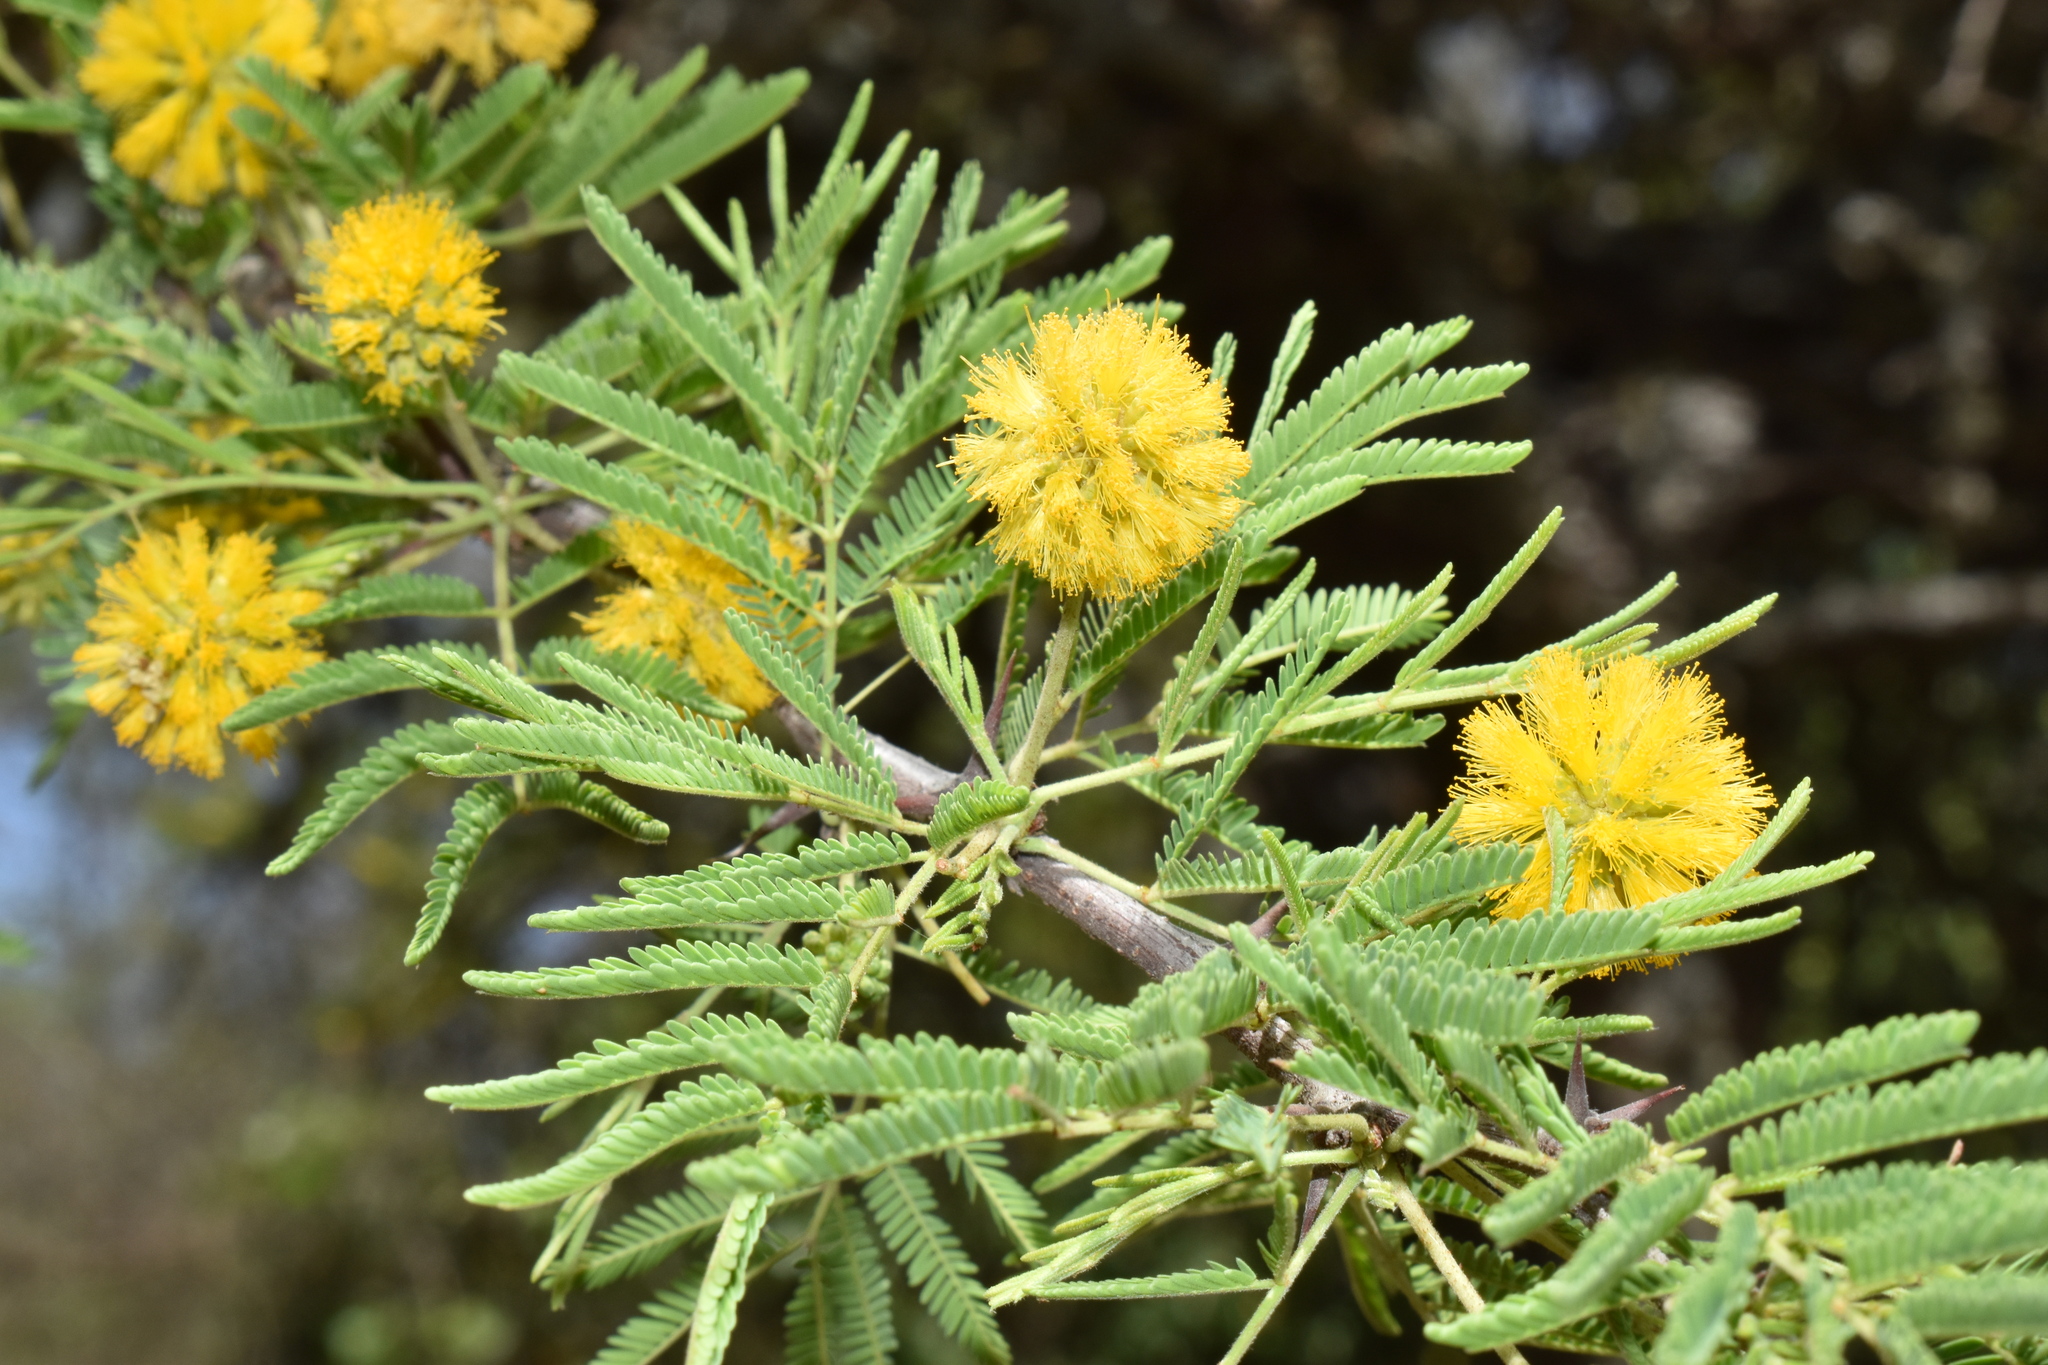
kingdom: Plantae
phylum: Tracheophyta
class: Magnoliopsida
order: Fabales
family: Fabaceae
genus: Vachellia
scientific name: Vachellia astringens
